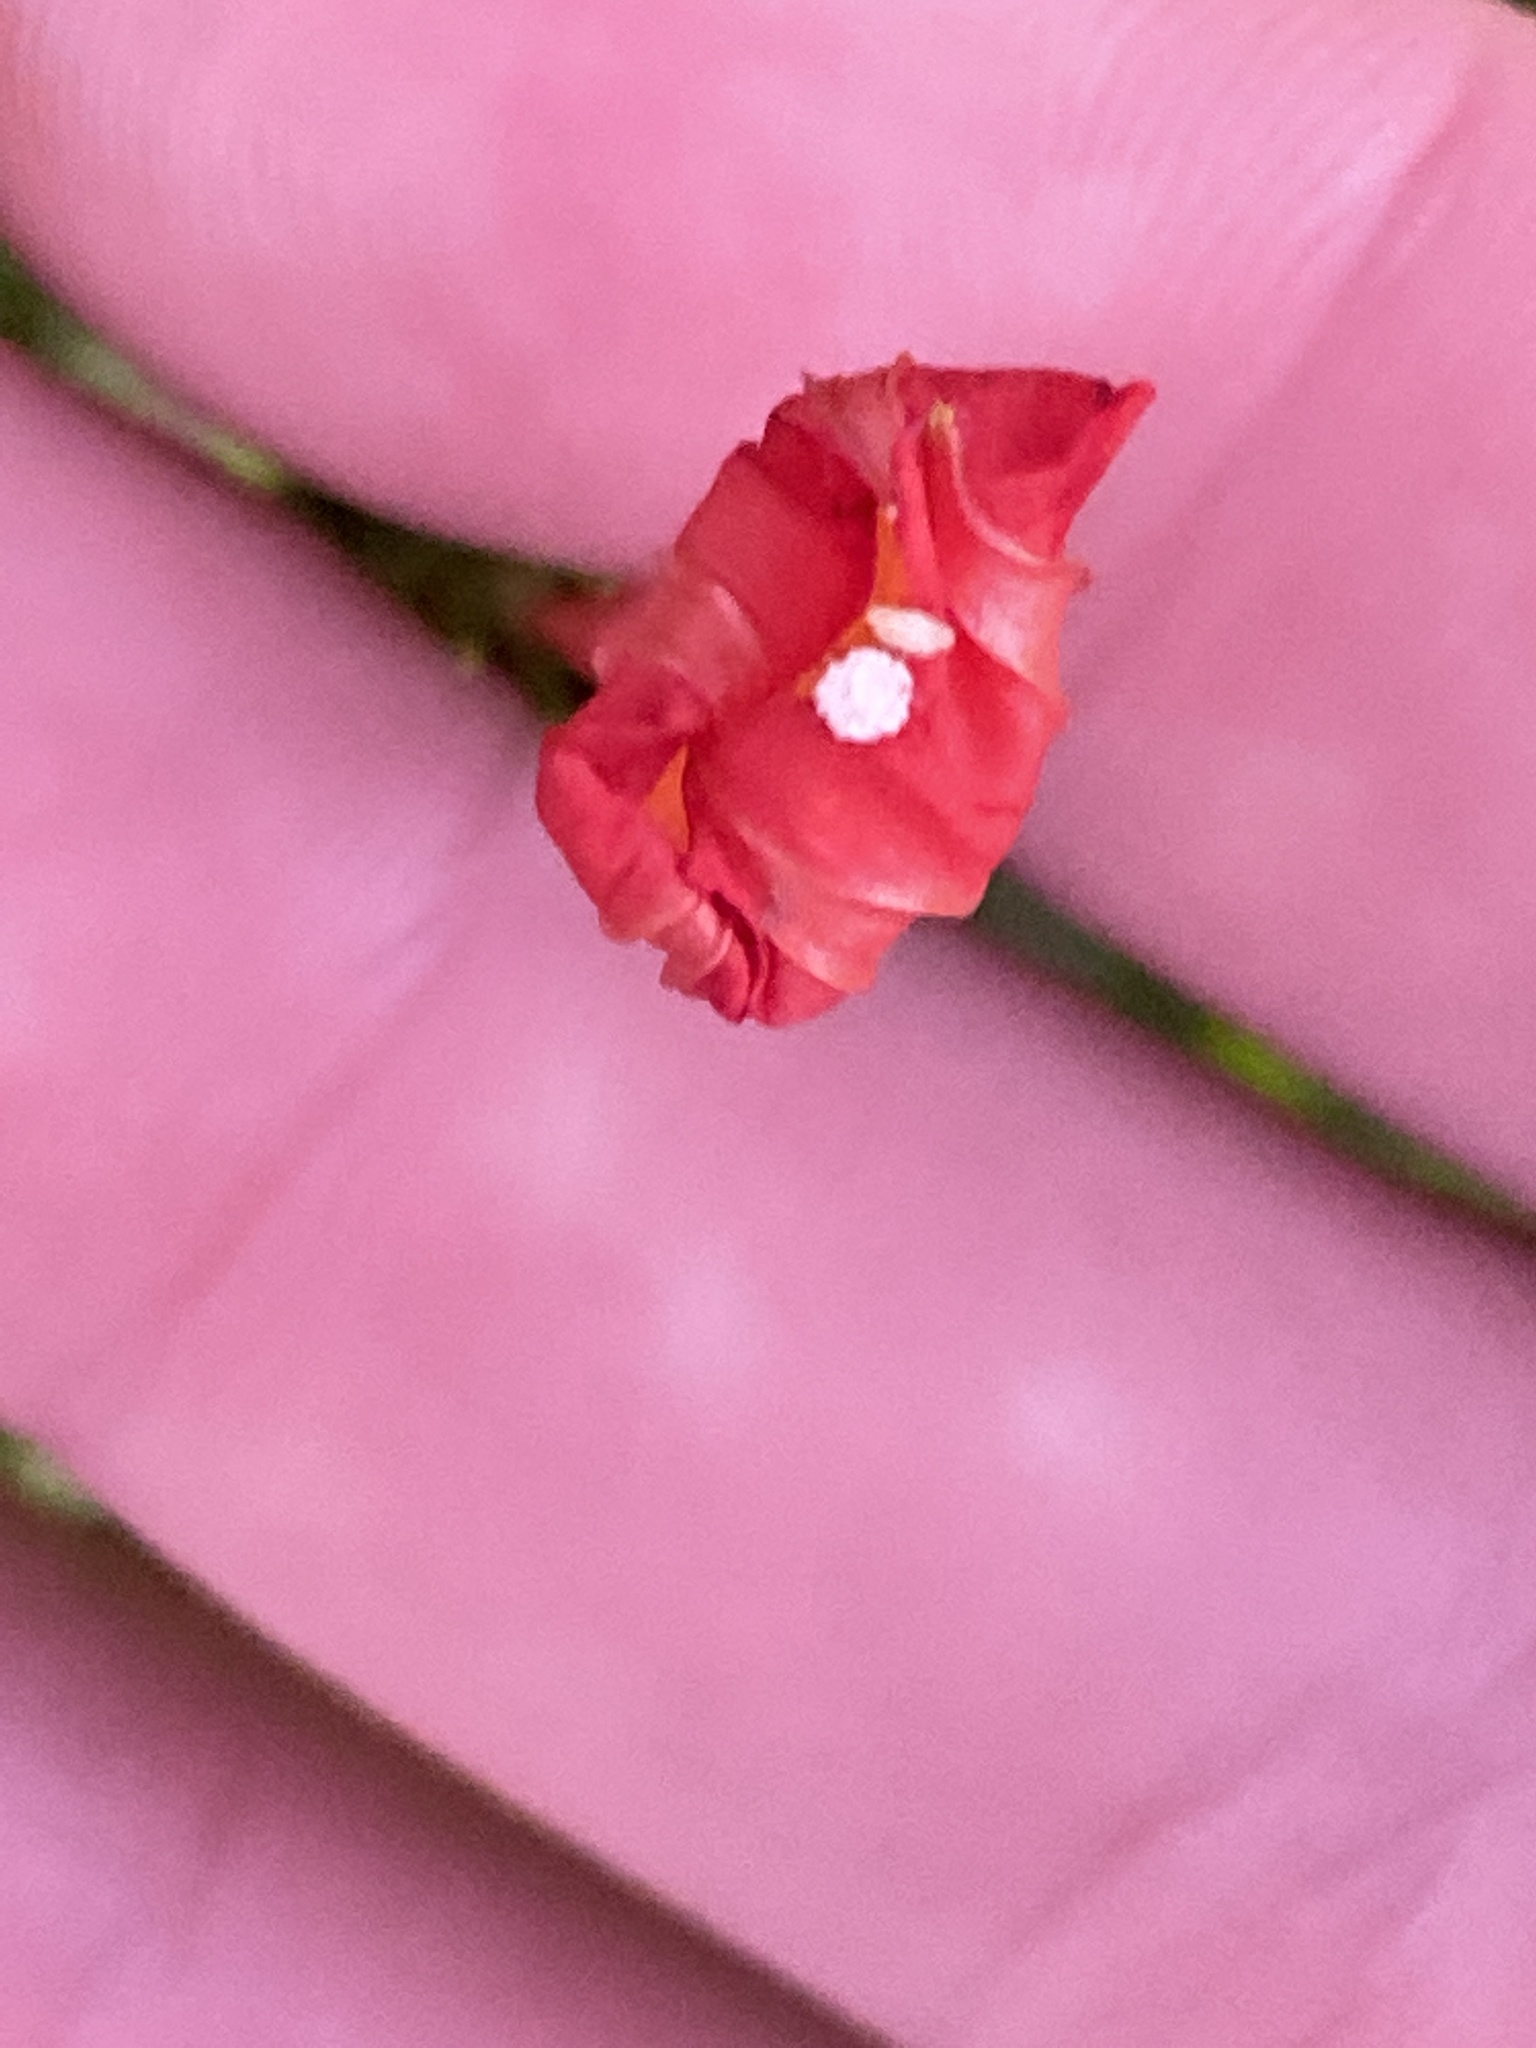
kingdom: Plantae
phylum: Tracheophyta
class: Magnoliopsida
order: Solanales
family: Convolvulaceae
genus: Ipomoea
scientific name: Ipomoea coccinea
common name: Red morning-glory
